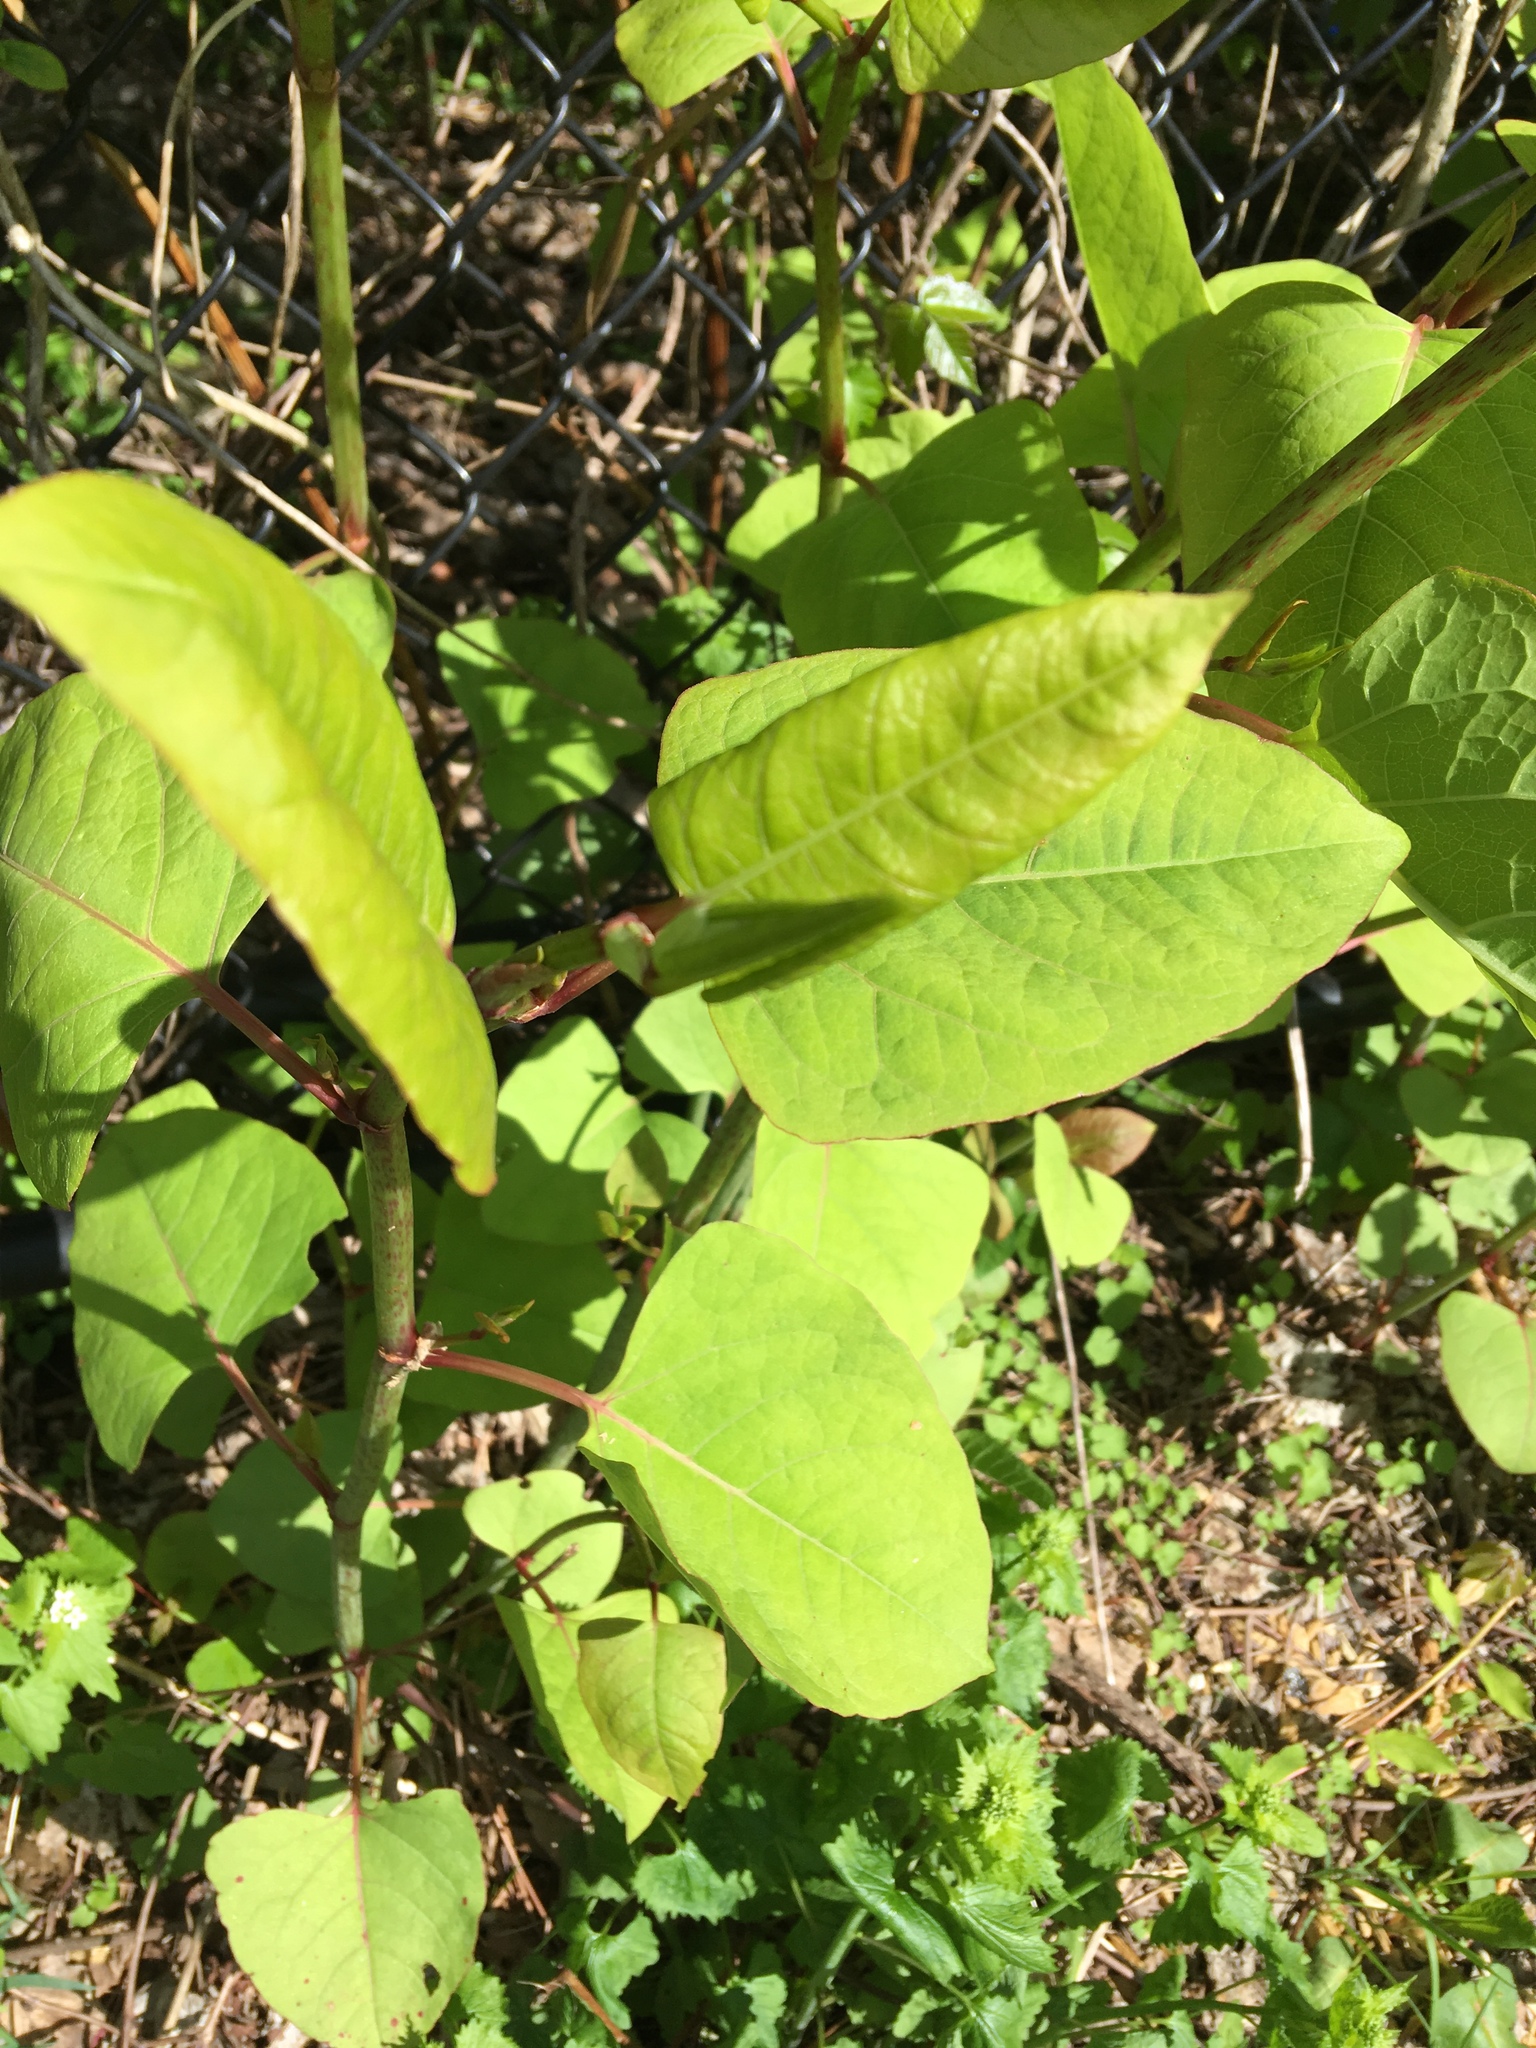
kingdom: Plantae
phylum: Tracheophyta
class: Magnoliopsida
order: Caryophyllales
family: Polygonaceae
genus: Reynoutria
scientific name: Reynoutria japonica
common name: Japanese knotweed
